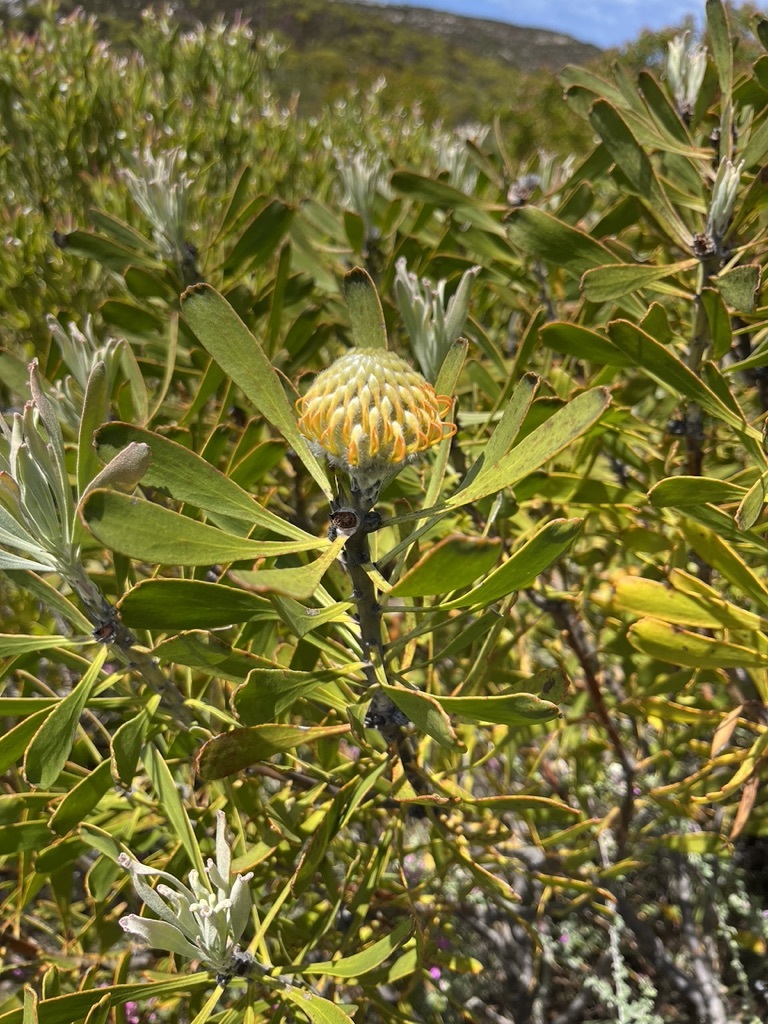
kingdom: Plantae
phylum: Tracheophyta
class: Magnoliopsida
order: Proteales
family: Proteaceae
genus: Leucospermum
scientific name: Leucospermum truncatum
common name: Limestone pincushion
